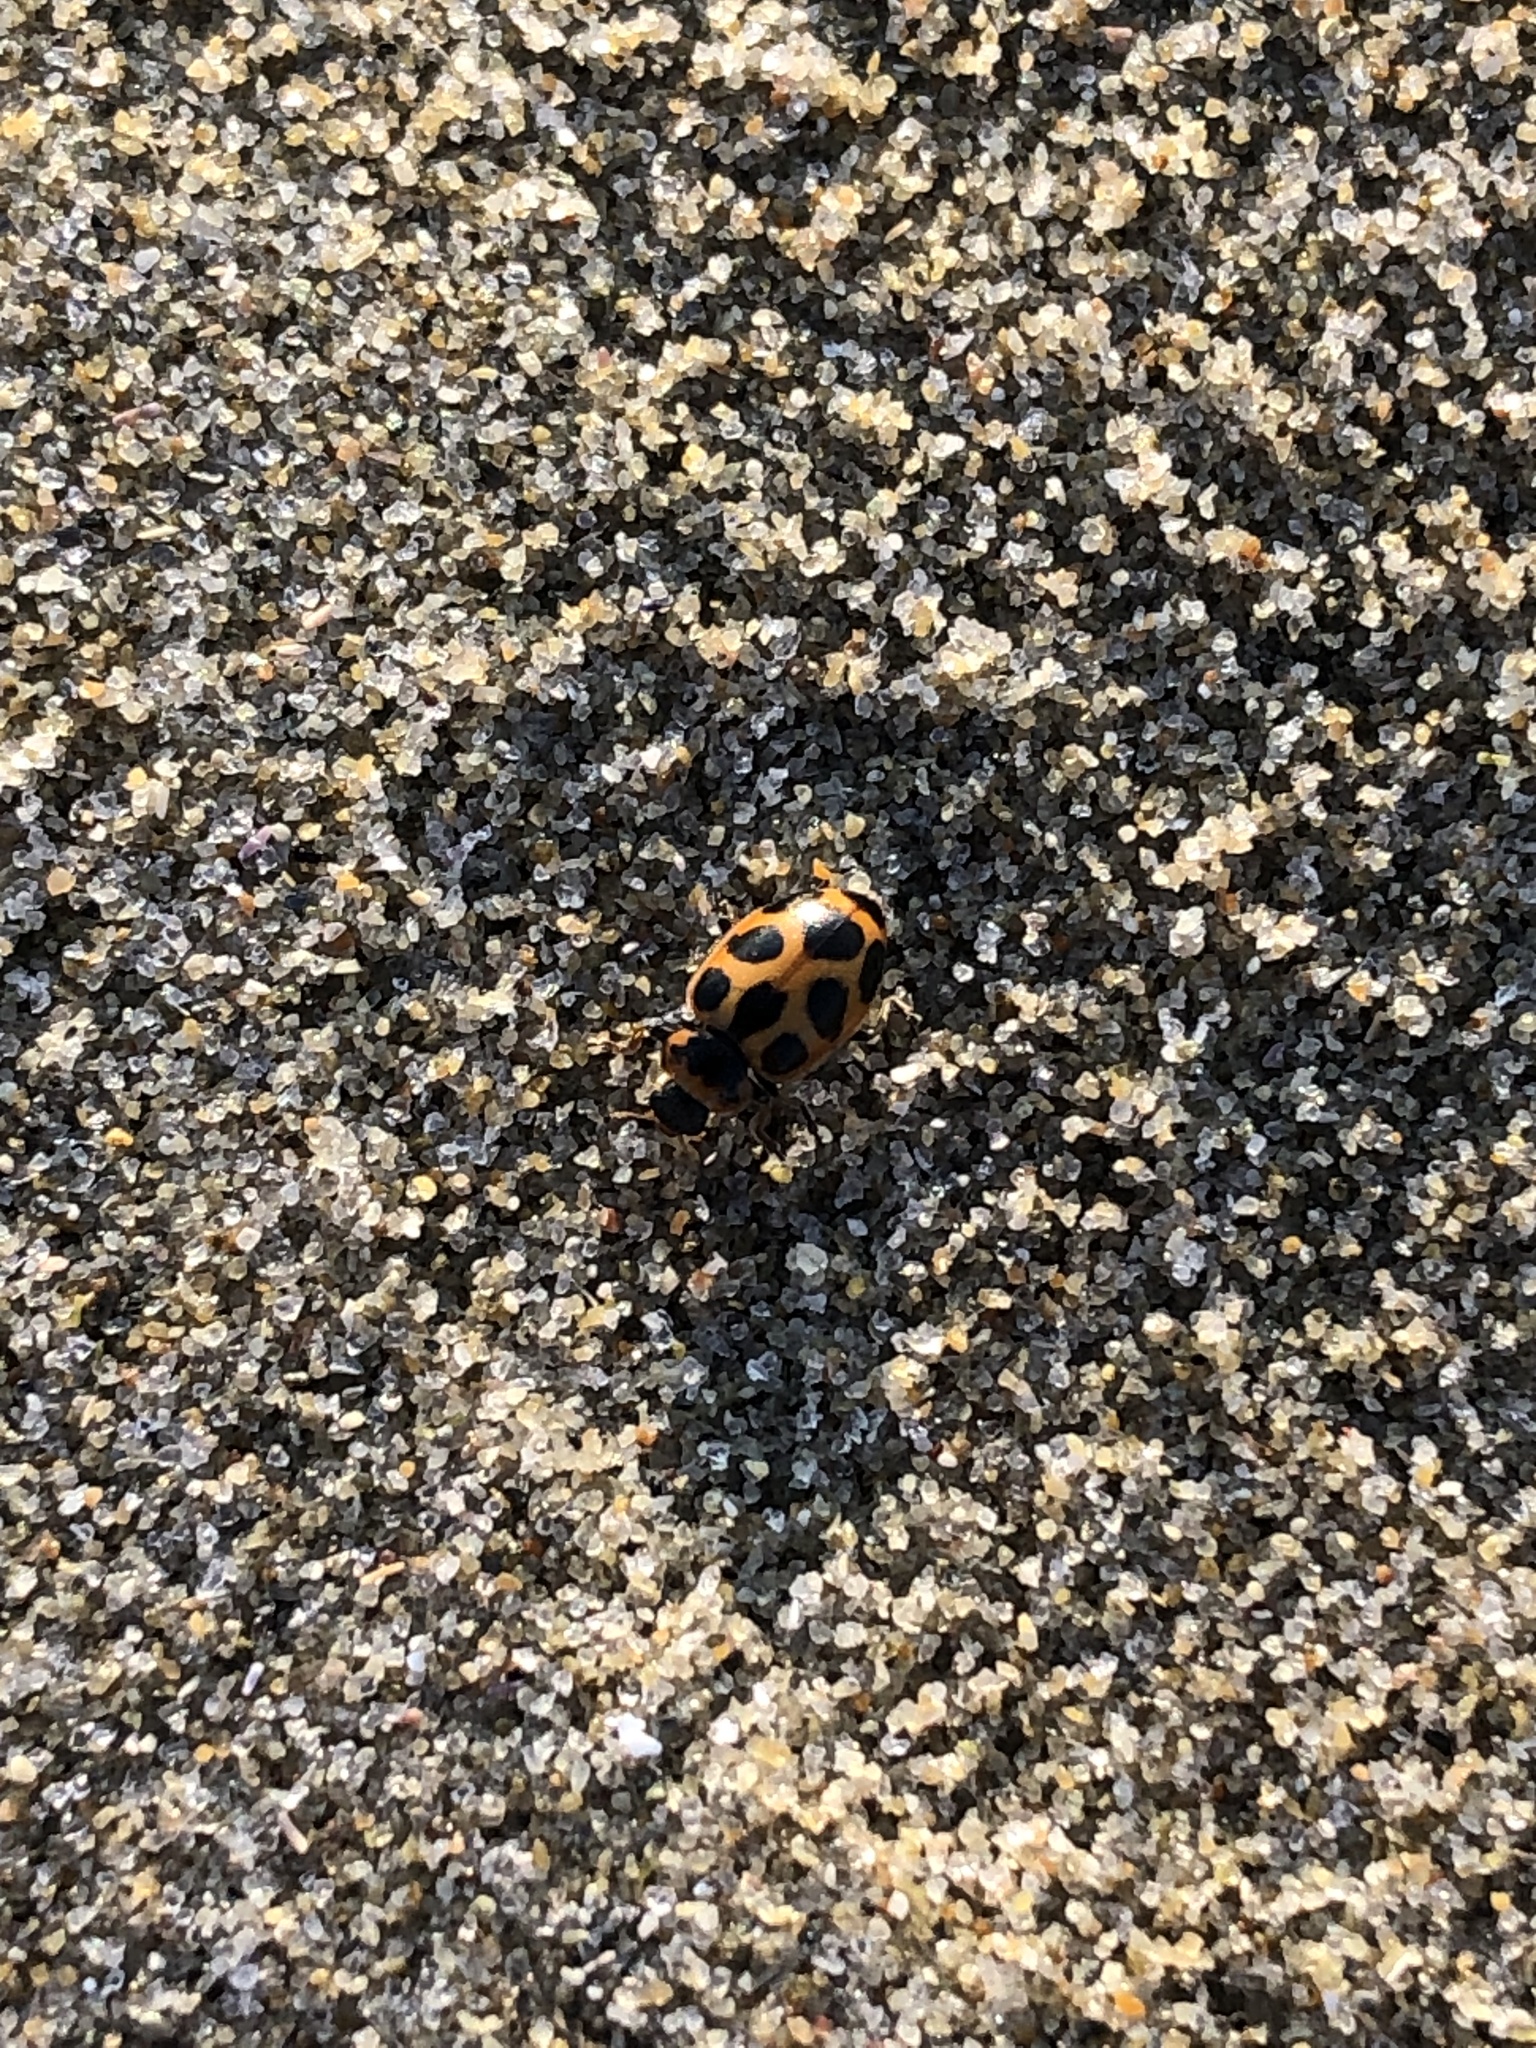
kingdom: Animalia
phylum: Arthropoda
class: Insecta
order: Coleoptera
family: Coccinellidae
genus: Naemia
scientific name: Naemia seriata
